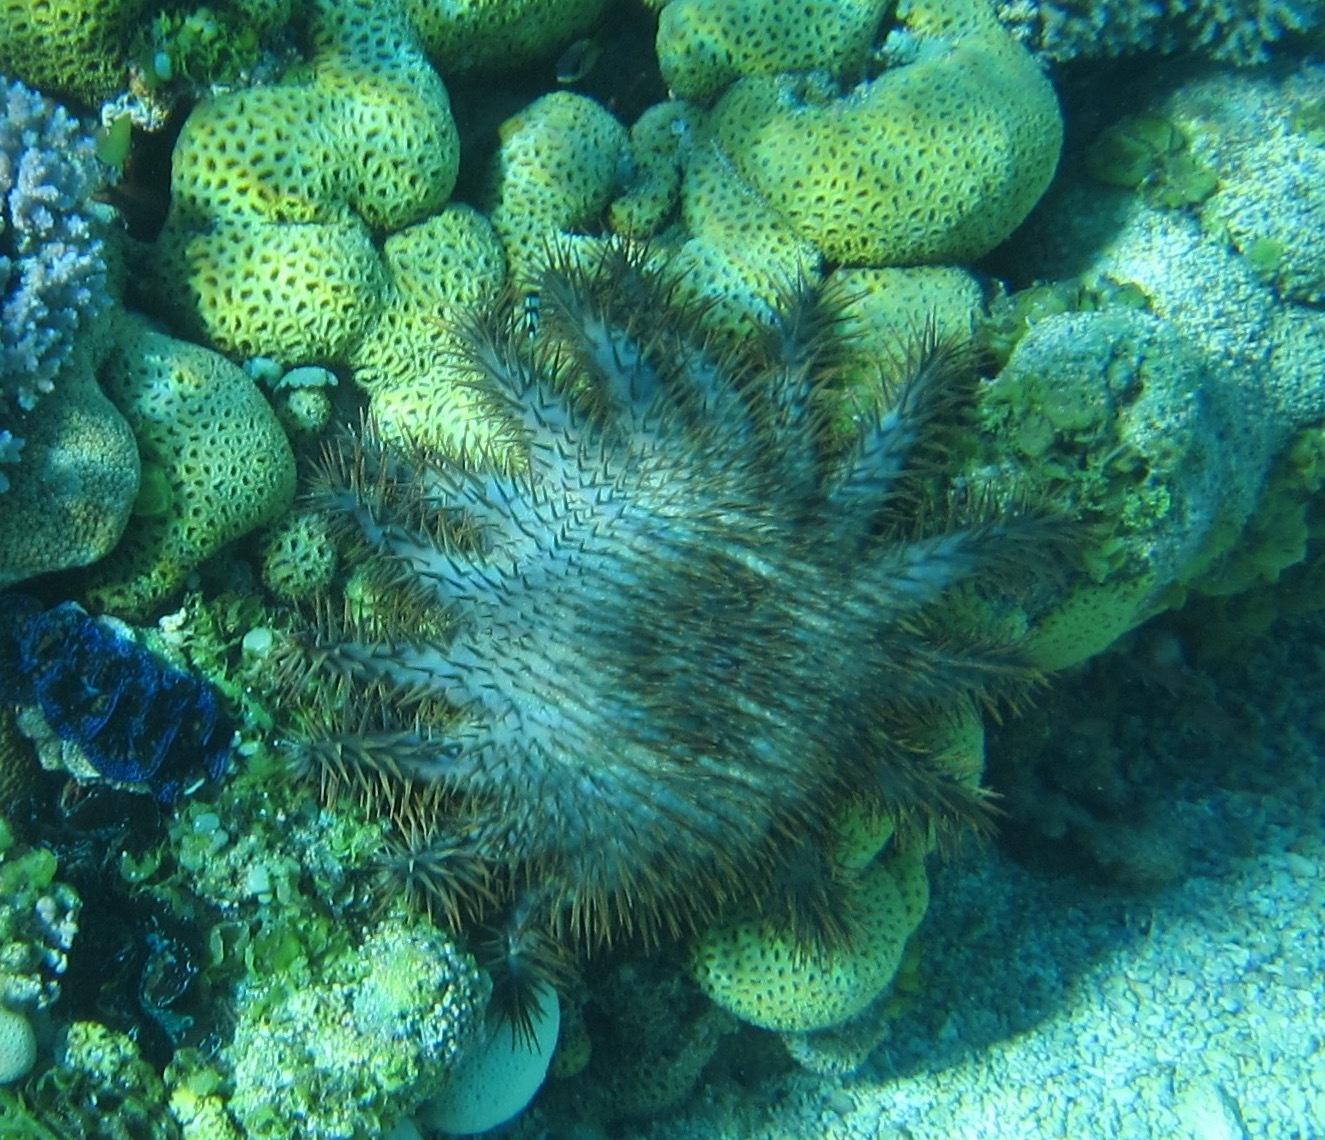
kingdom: Animalia
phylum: Echinodermata
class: Asteroidea
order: Valvatida
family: Acanthasteridae
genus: Acanthaster
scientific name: Acanthaster planci
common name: Crown-of-thorns
